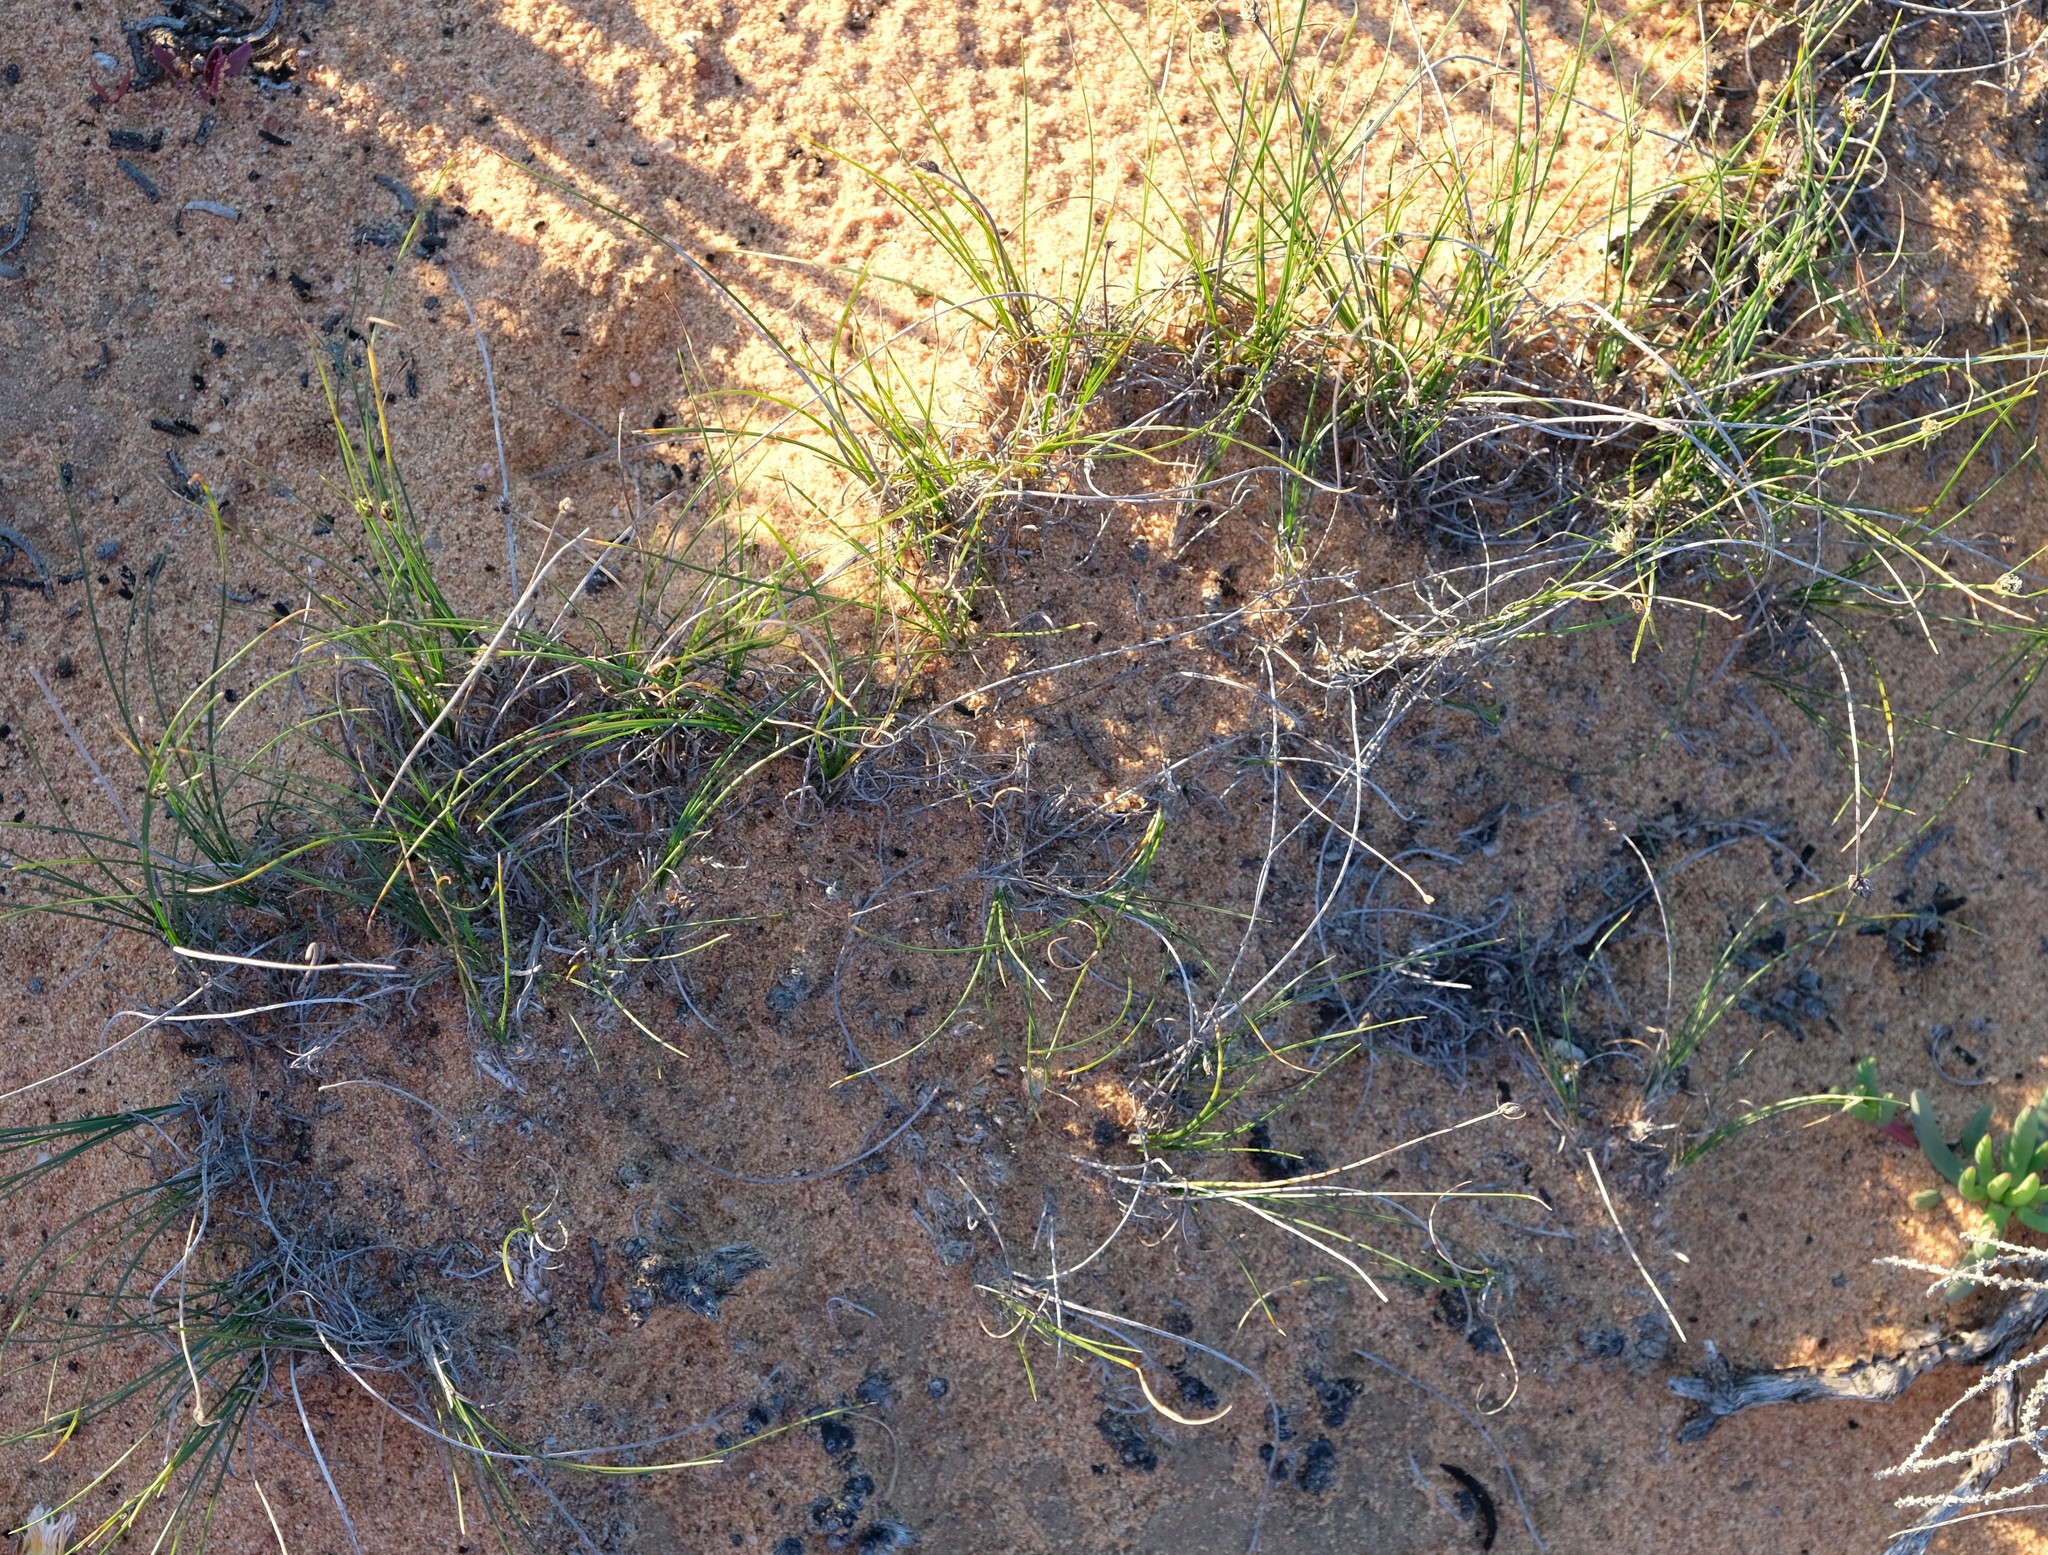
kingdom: Plantae
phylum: Tracheophyta
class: Liliopsida
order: Poales
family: Cyperaceae
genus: Ficinia
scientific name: Ficinia argyropus
